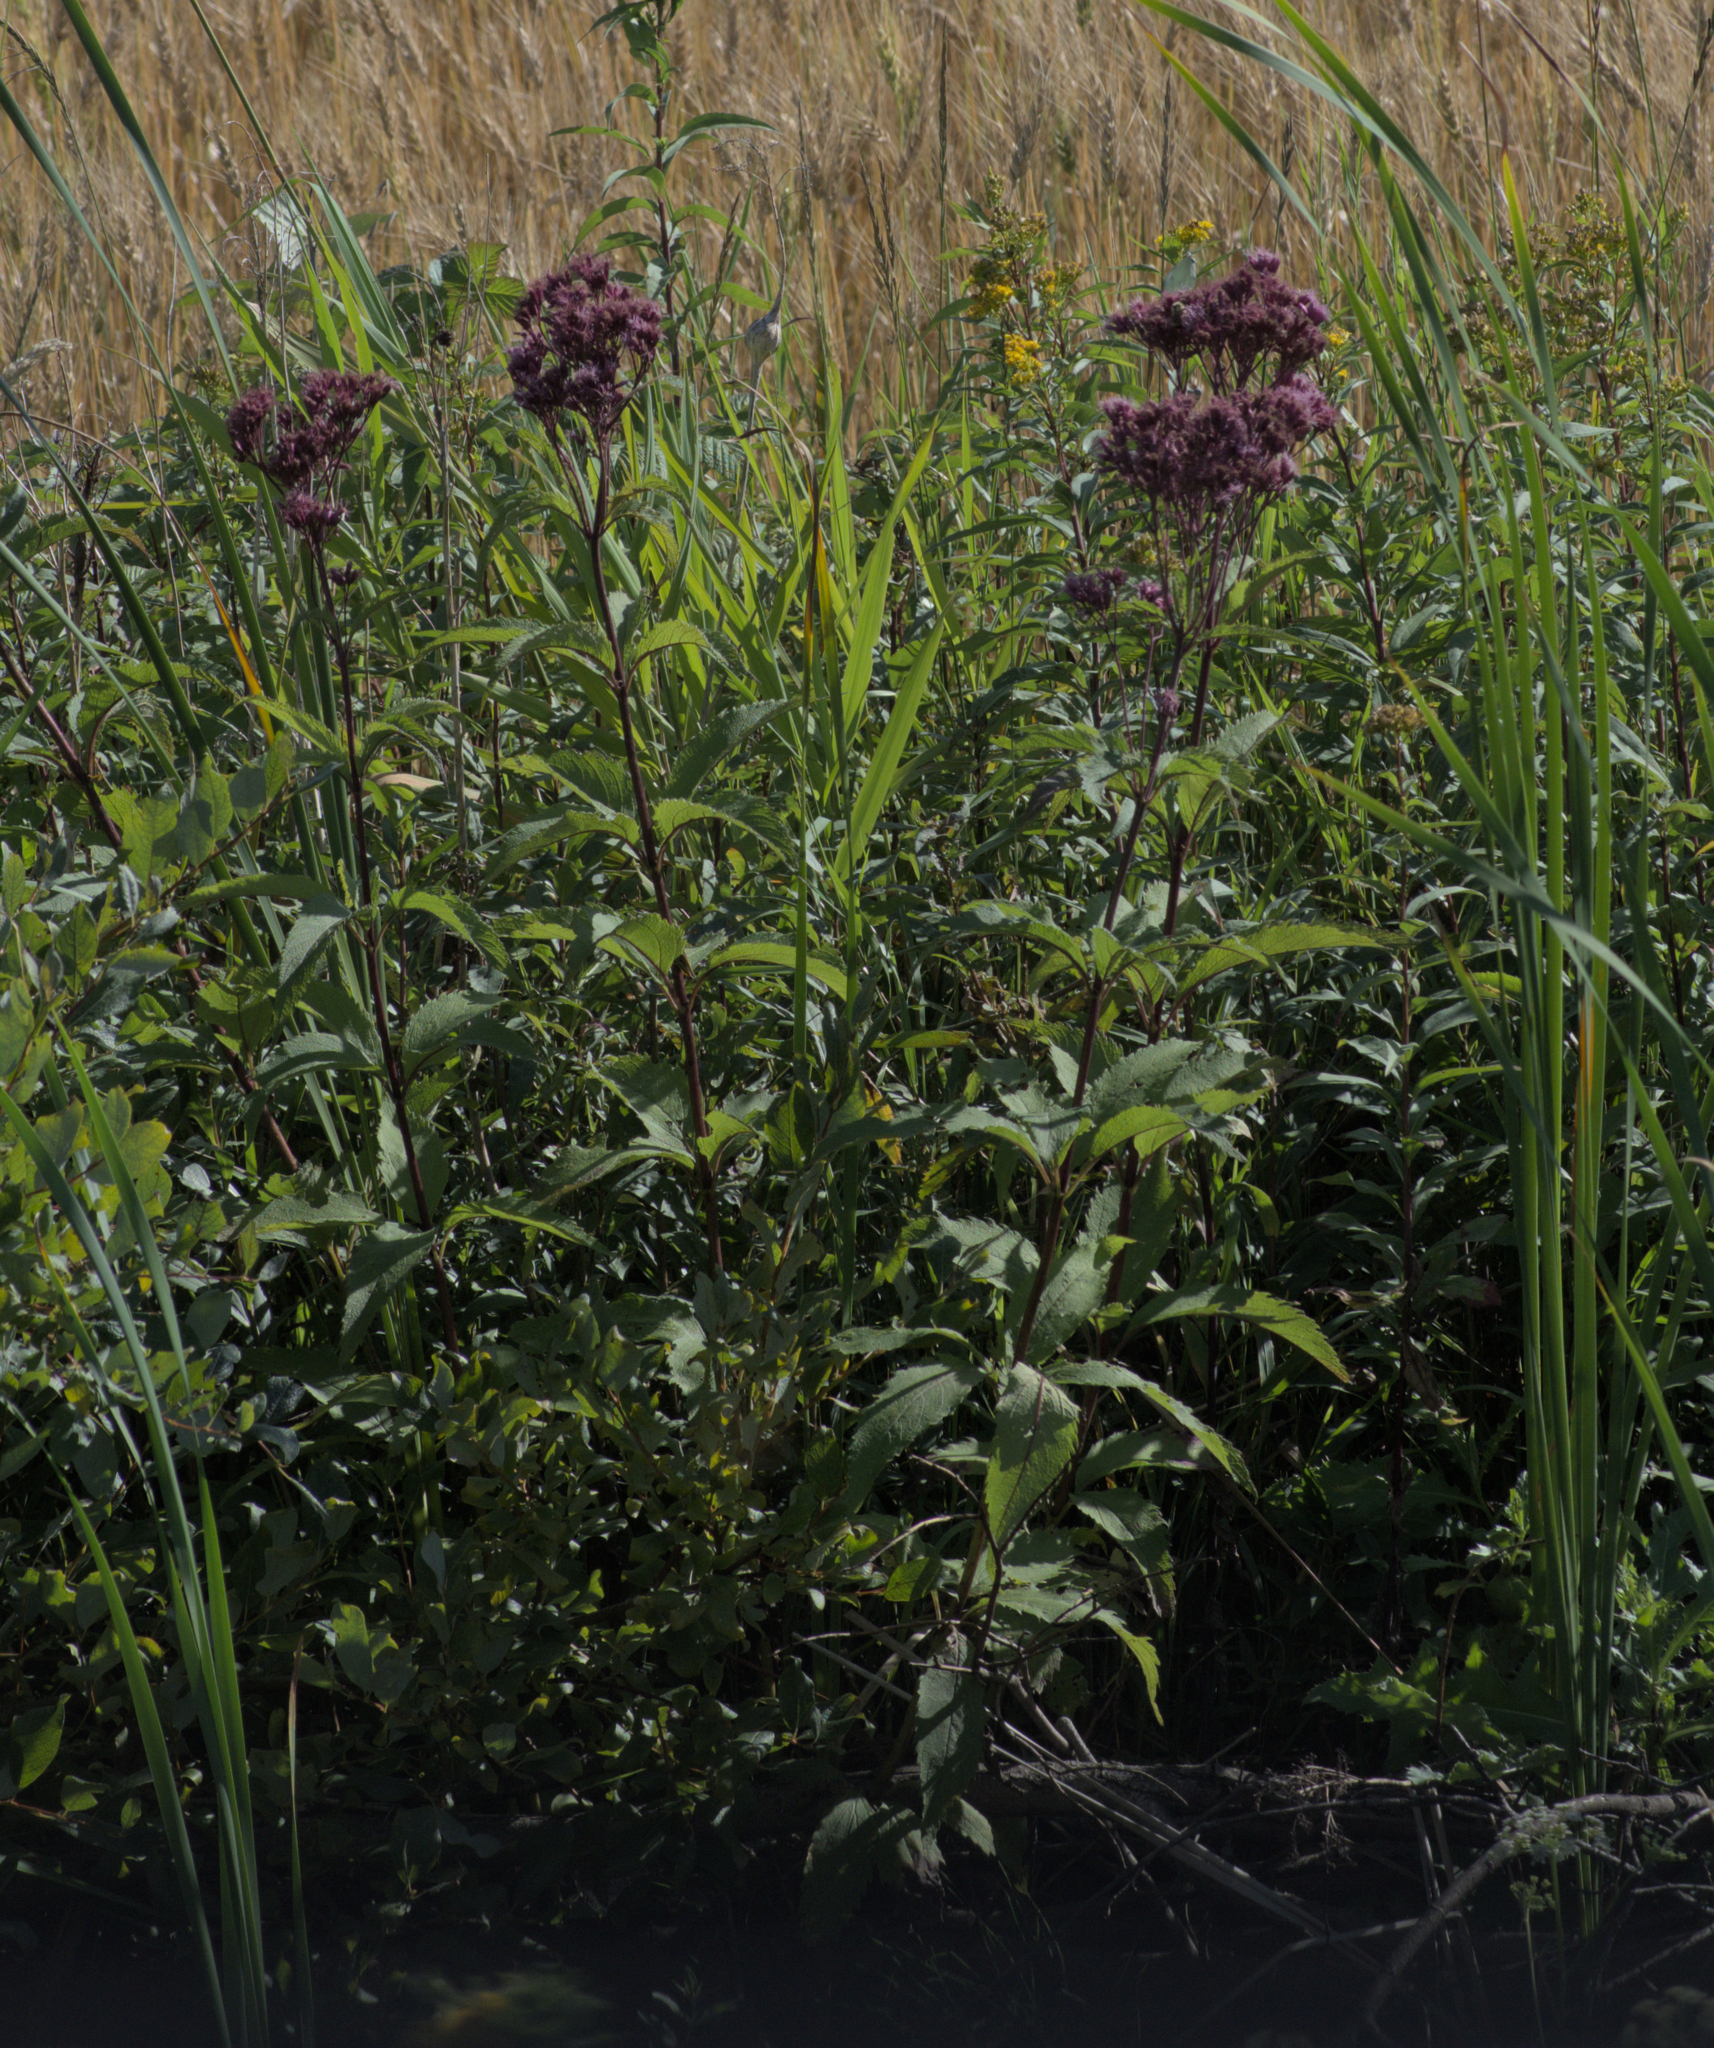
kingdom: Plantae
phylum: Tracheophyta
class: Magnoliopsida
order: Asterales
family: Asteraceae
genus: Eutrochium
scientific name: Eutrochium maculatum
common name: Spotted joe pye weed
